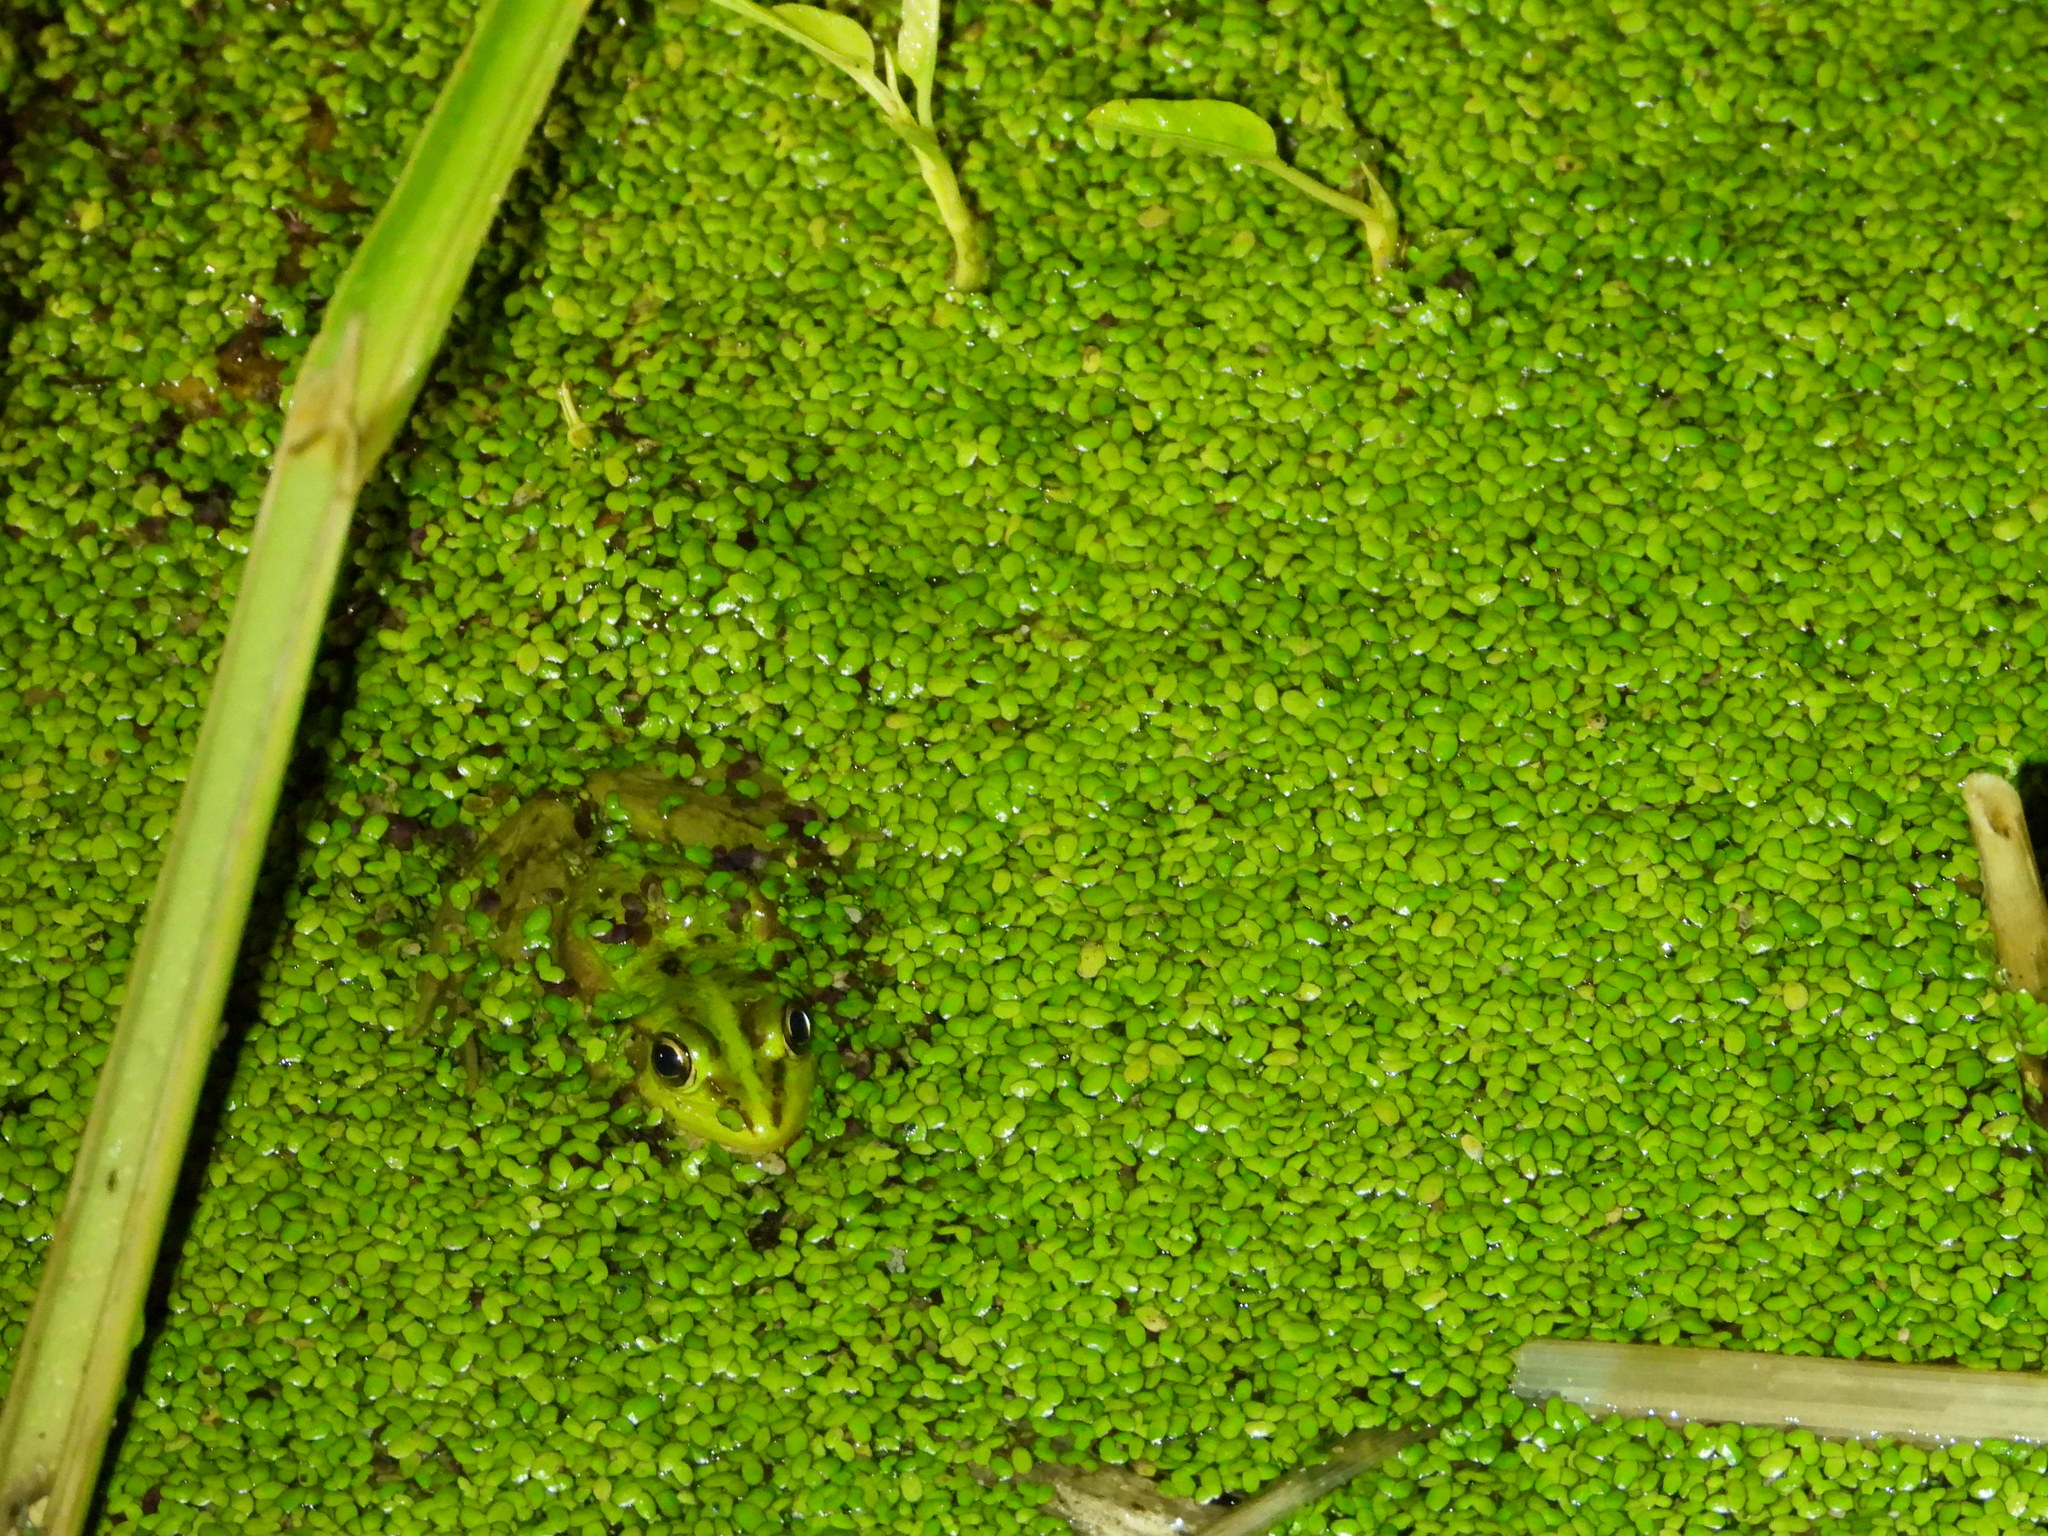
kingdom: Animalia
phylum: Chordata
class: Amphibia
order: Anura
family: Ranidae
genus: Pelophylax
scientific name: Pelophylax fukienensis
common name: Fukien gold-striped pond frog
